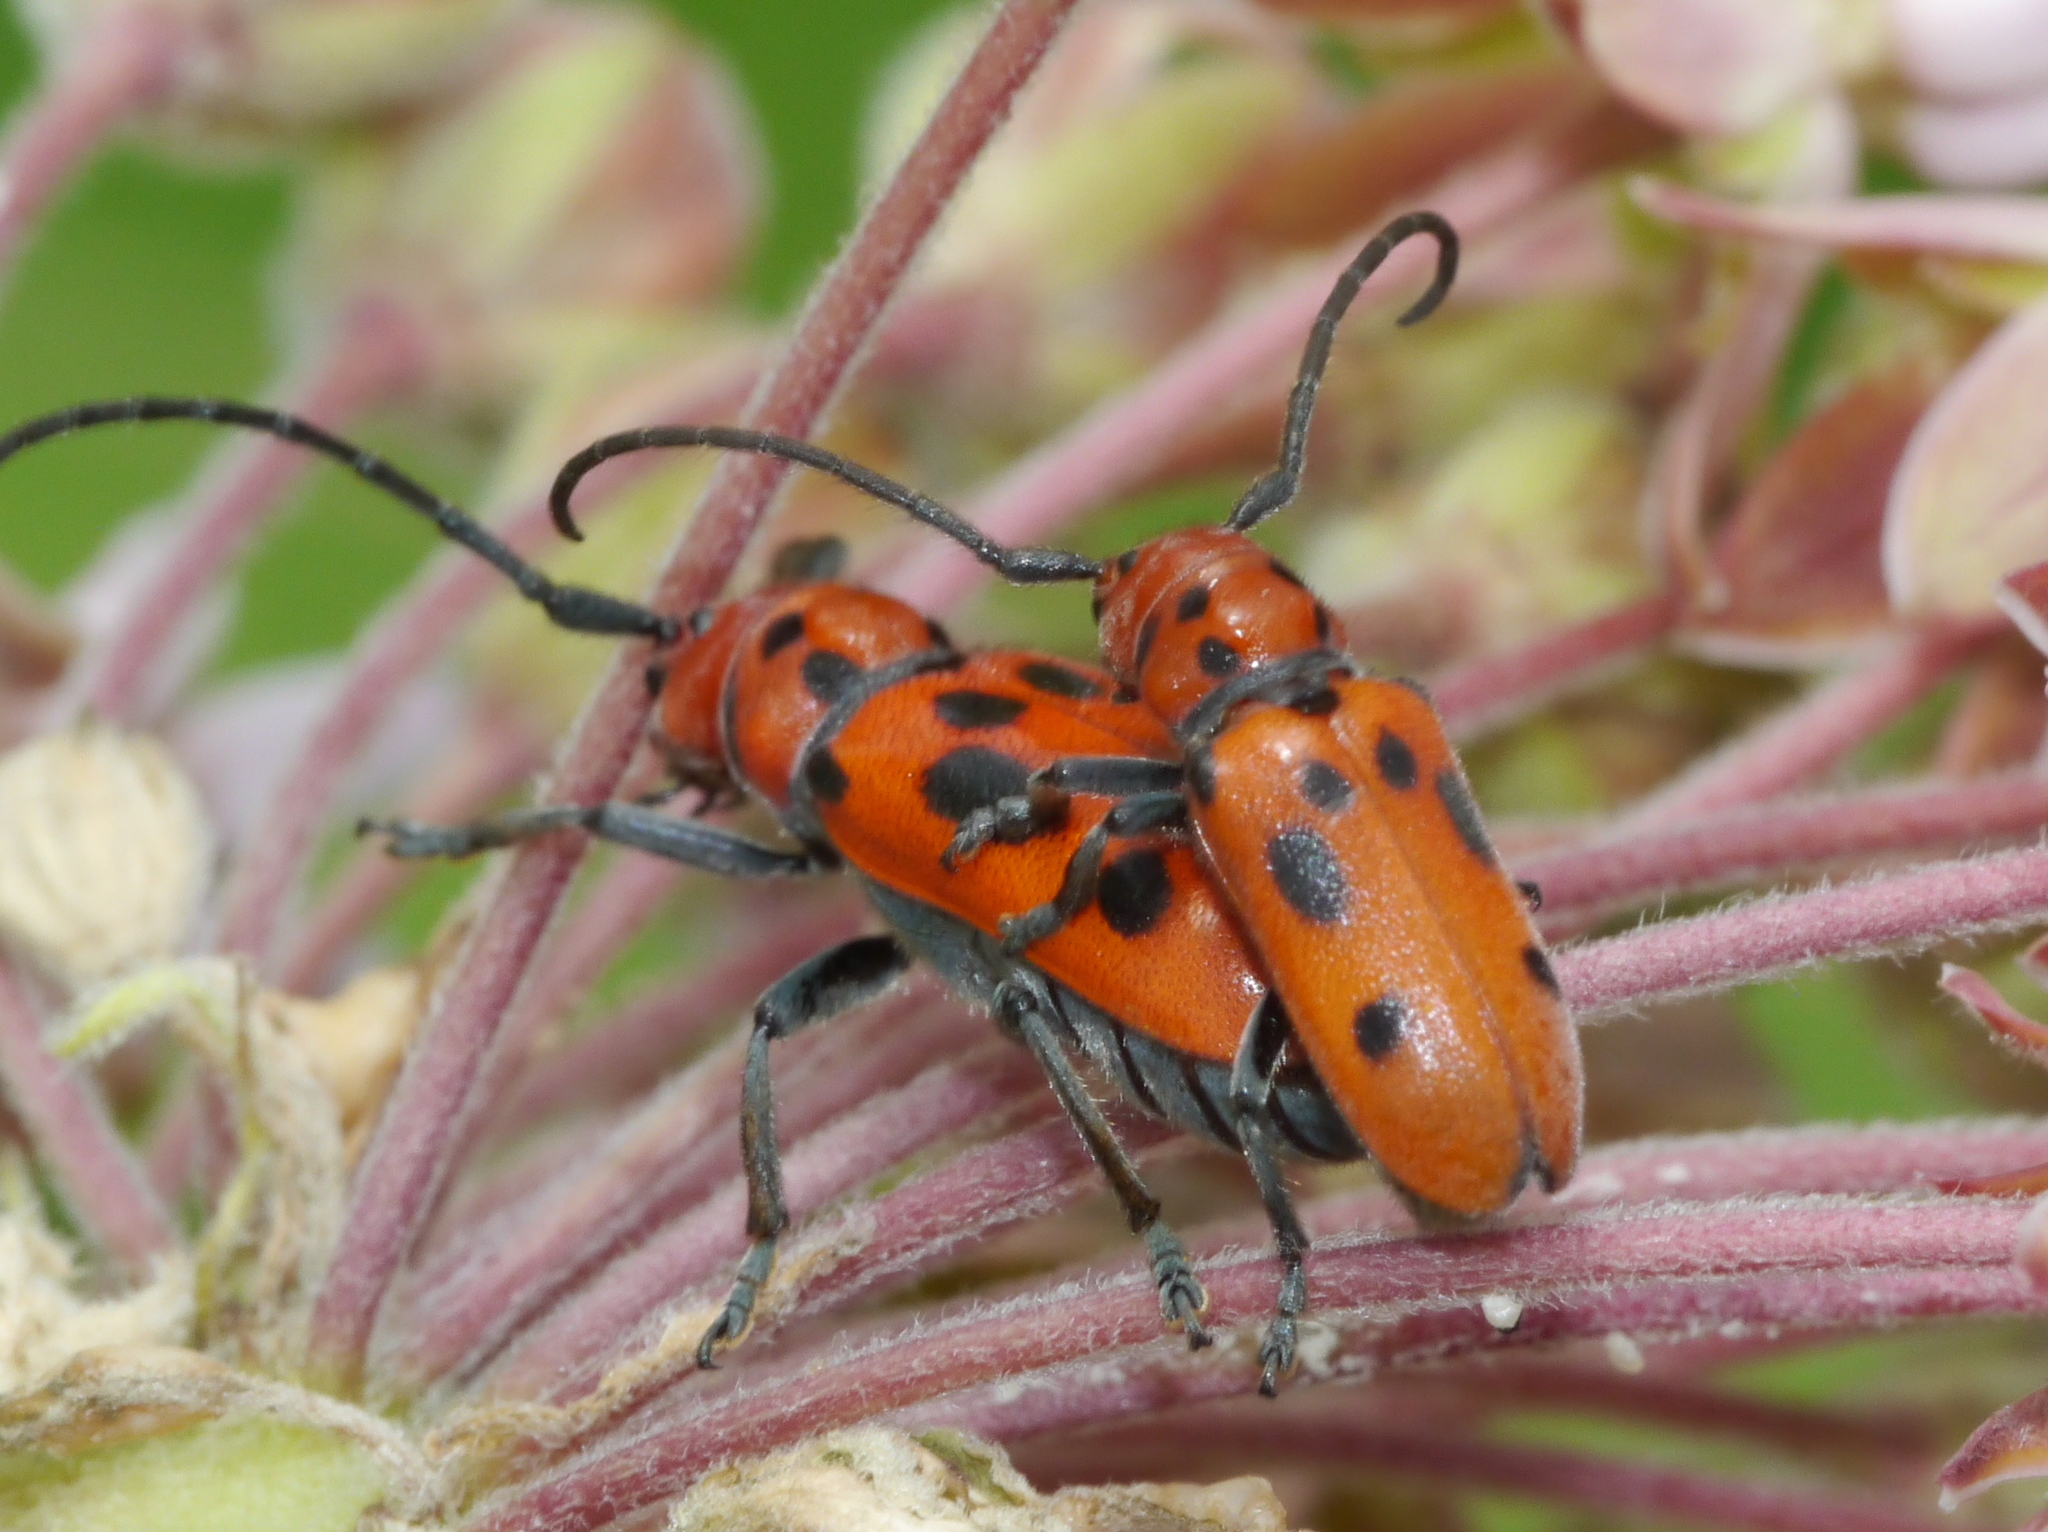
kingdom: Animalia
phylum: Arthropoda
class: Insecta
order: Coleoptera
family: Cerambycidae
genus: Tetraopes
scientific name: Tetraopes tetrophthalmus
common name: Red milkweed beetle
